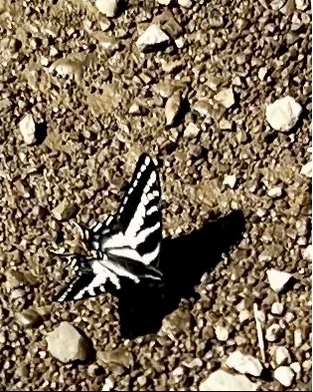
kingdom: Animalia
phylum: Arthropoda
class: Insecta
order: Lepidoptera
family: Papilionidae
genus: Papilio
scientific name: Papilio eurymedon
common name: Pale tiger swallowtail
